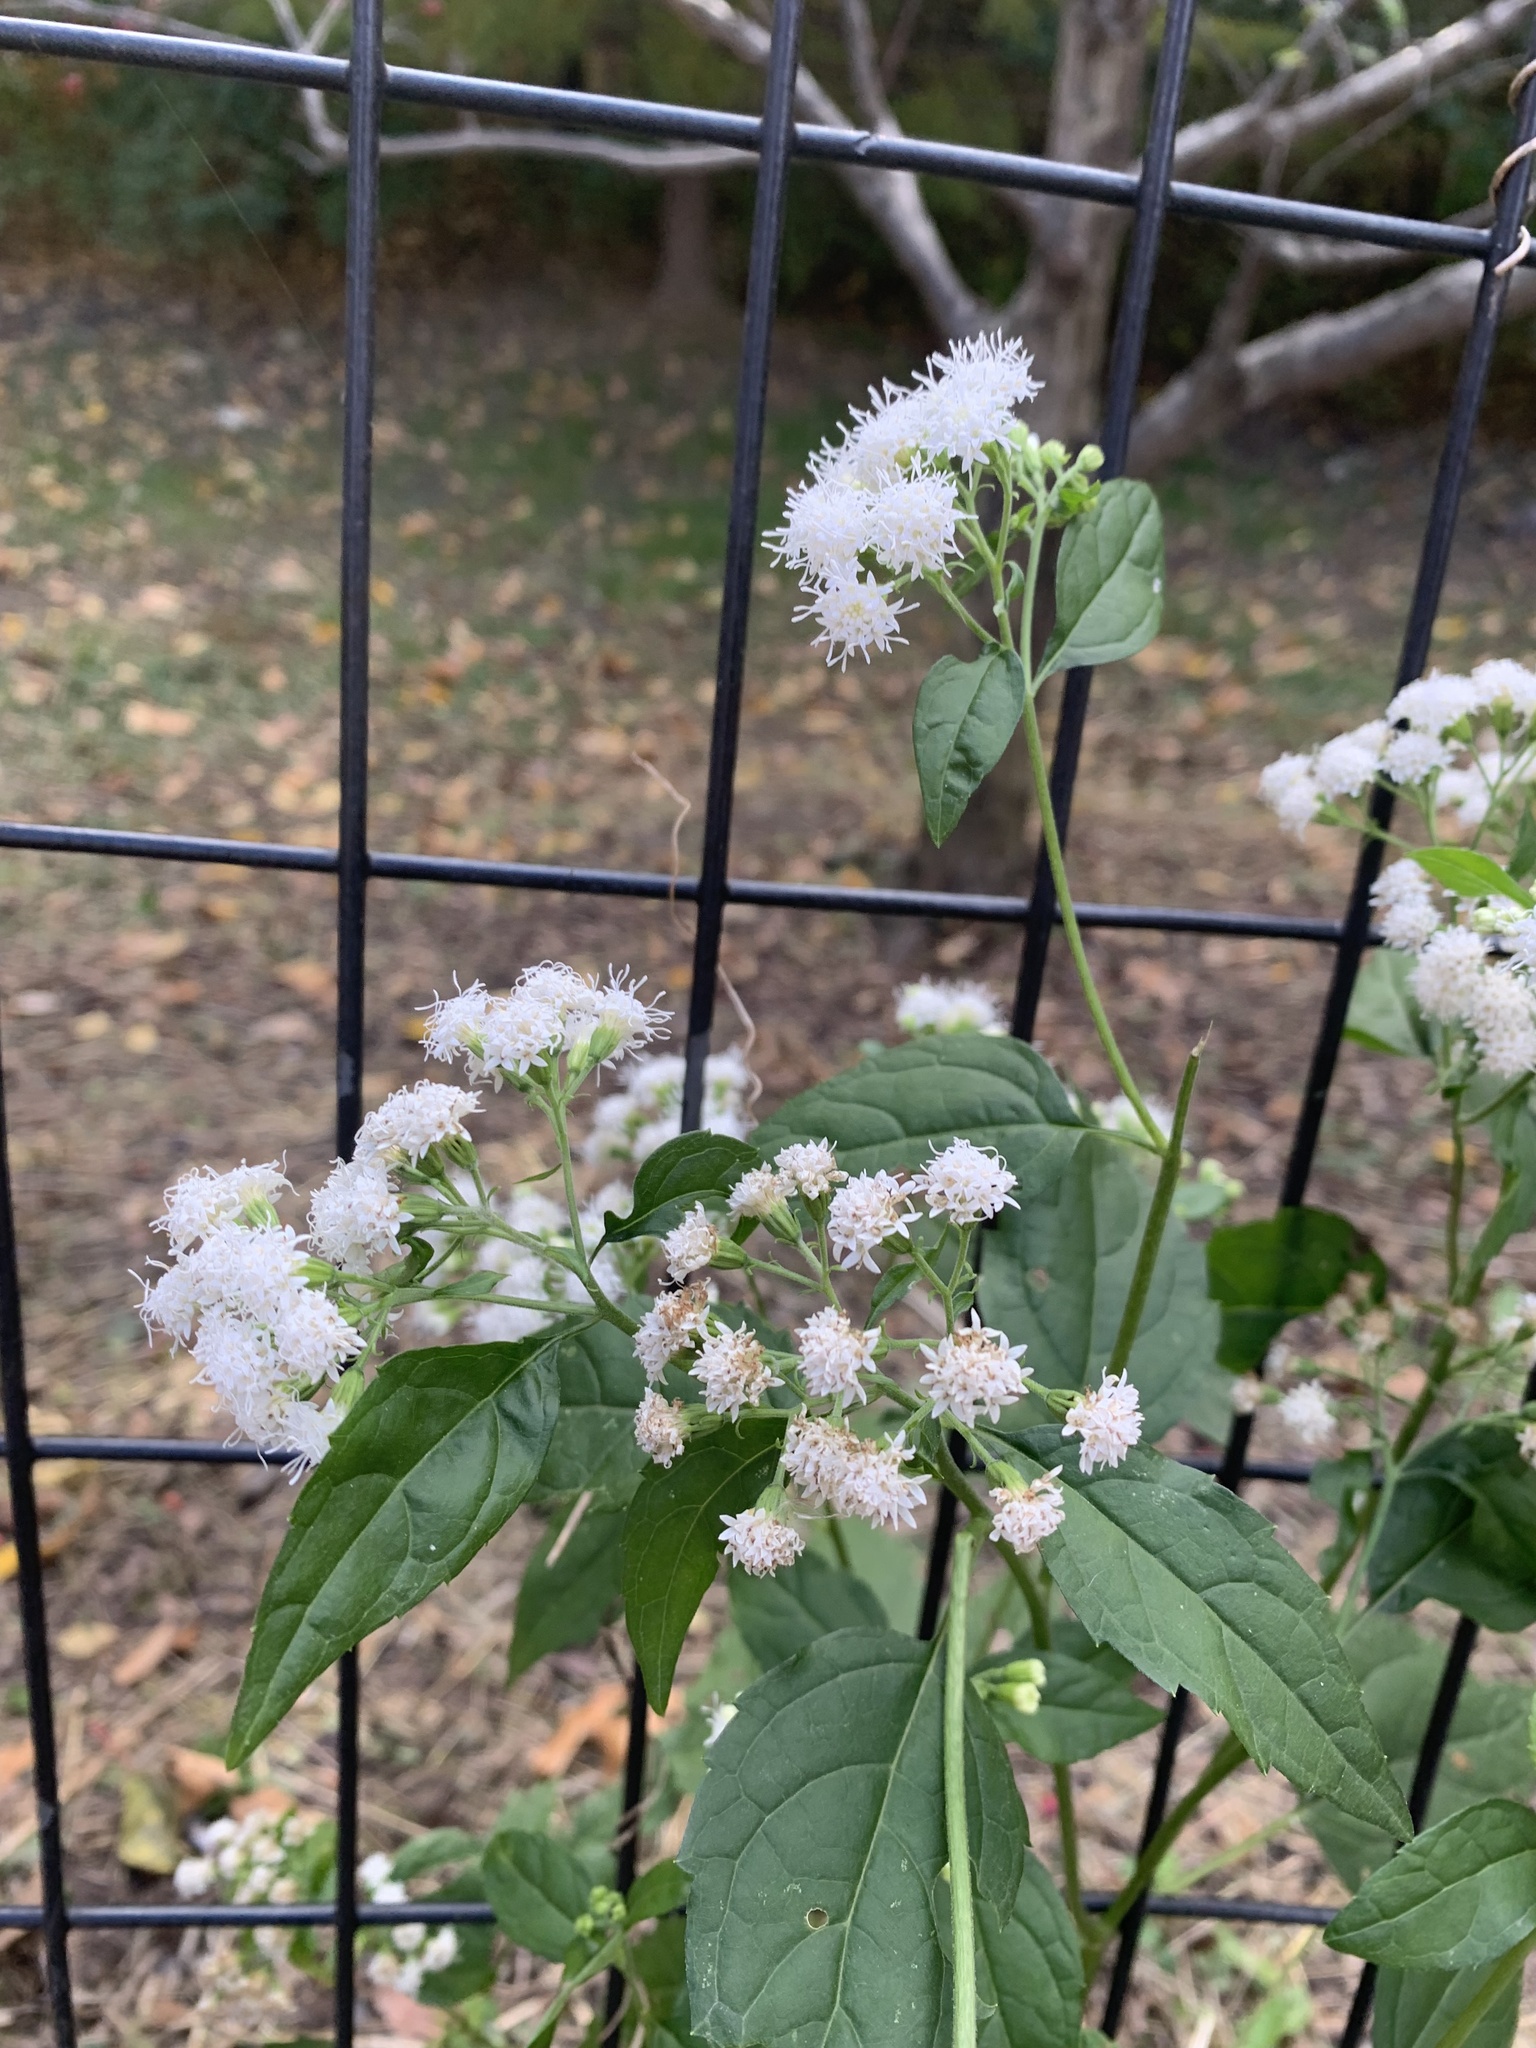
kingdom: Plantae
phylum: Tracheophyta
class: Magnoliopsida
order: Asterales
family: Asteraceae
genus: Ageratina
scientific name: Ageratina altissima
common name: White snakeroot
